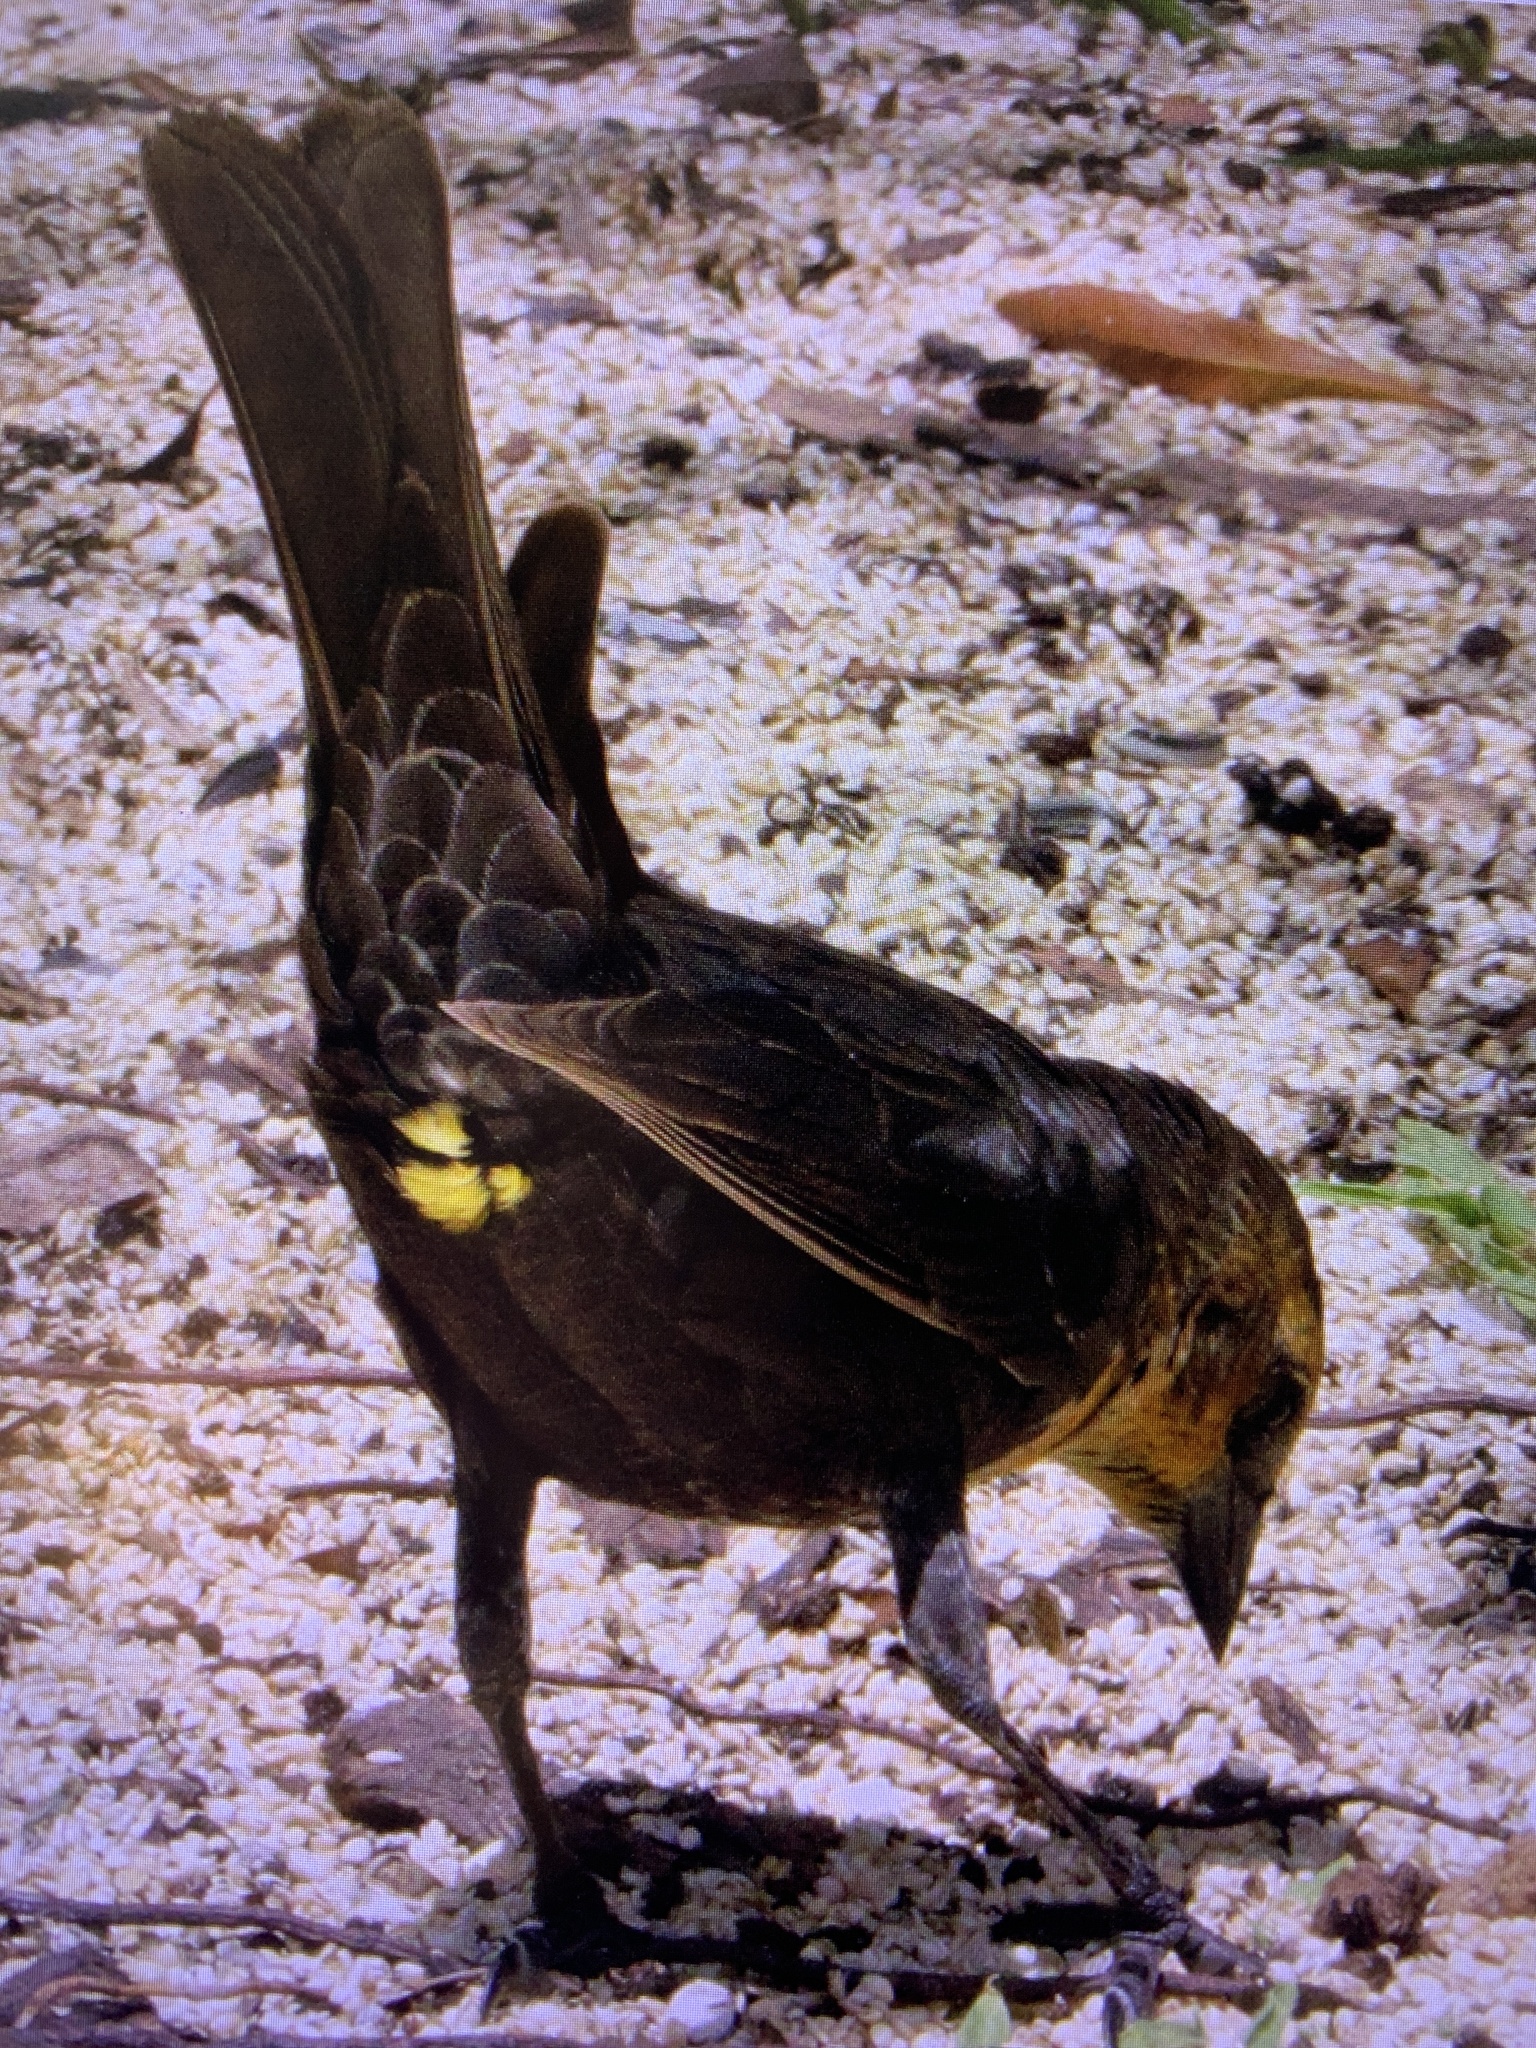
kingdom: Animalia
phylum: Chordata
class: Aves
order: Passeriformes
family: Icteridae
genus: Xanthocephalus
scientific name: Xanthocephalus xanthocephalus
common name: Yellow-headed blackbird
